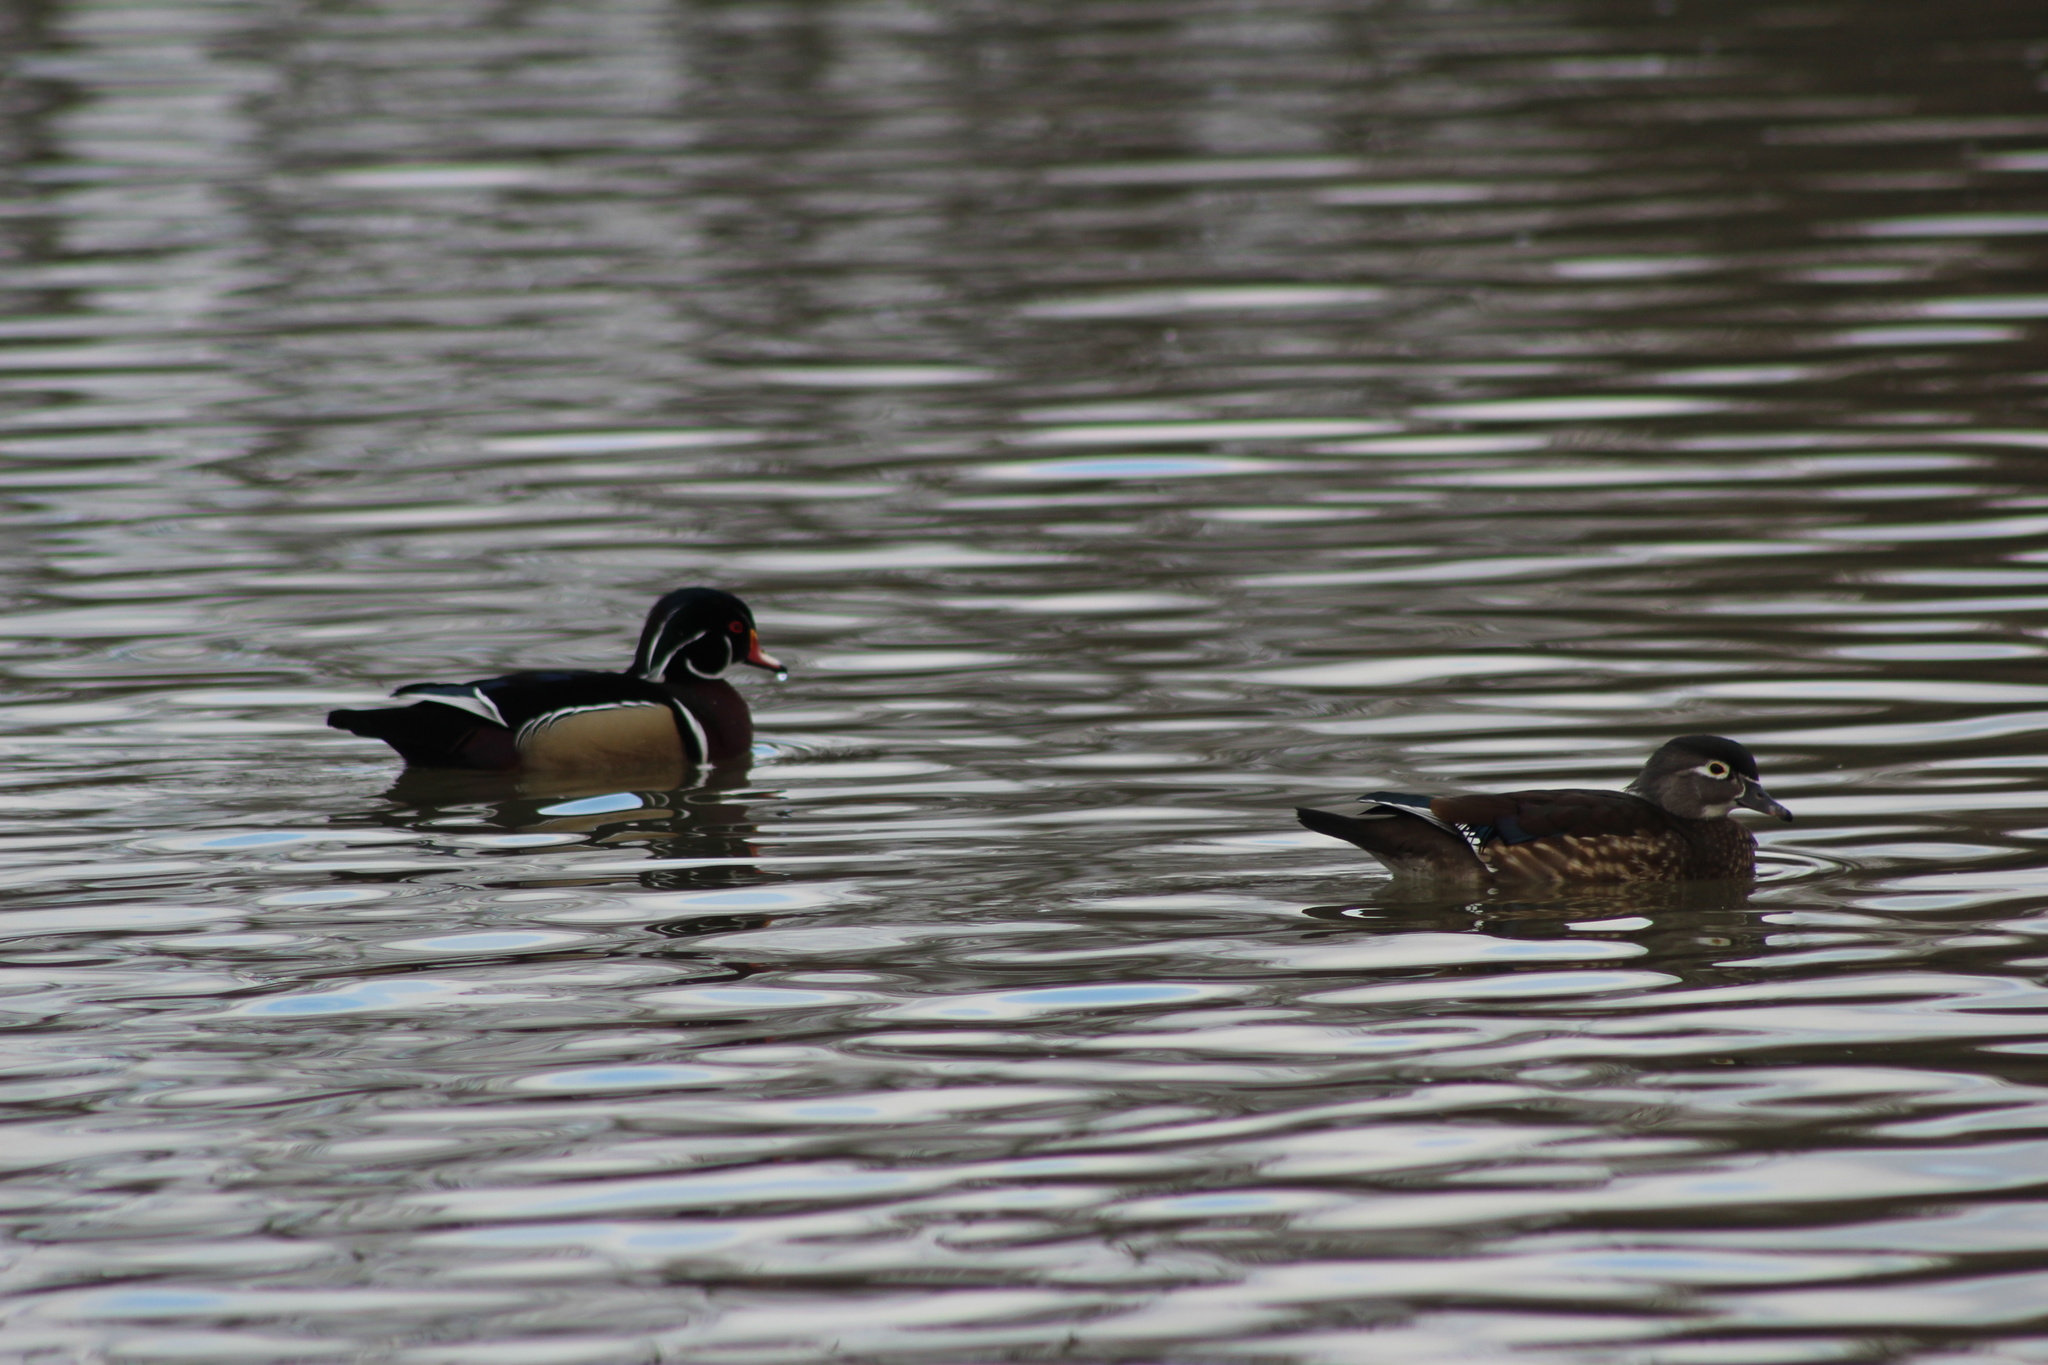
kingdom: Animalia
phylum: Chordata
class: Aves
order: Anseriformes
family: Anatidae
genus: Aix
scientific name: Aix sponsa
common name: Wood duck
